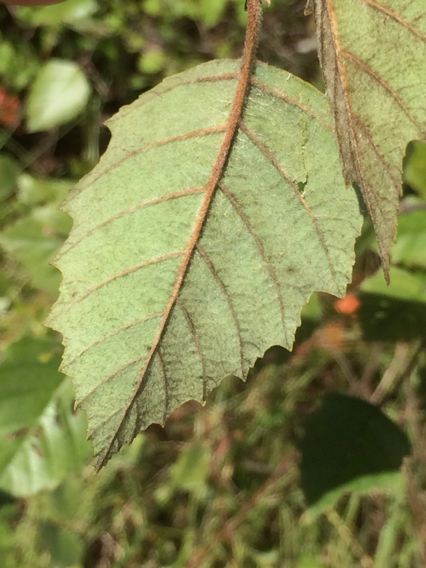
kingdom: Plantae
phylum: Tracheophyta
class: Magnoliopsida
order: Fagales
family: Betulaceae
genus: Betula
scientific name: Betula nigra
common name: Black birch
